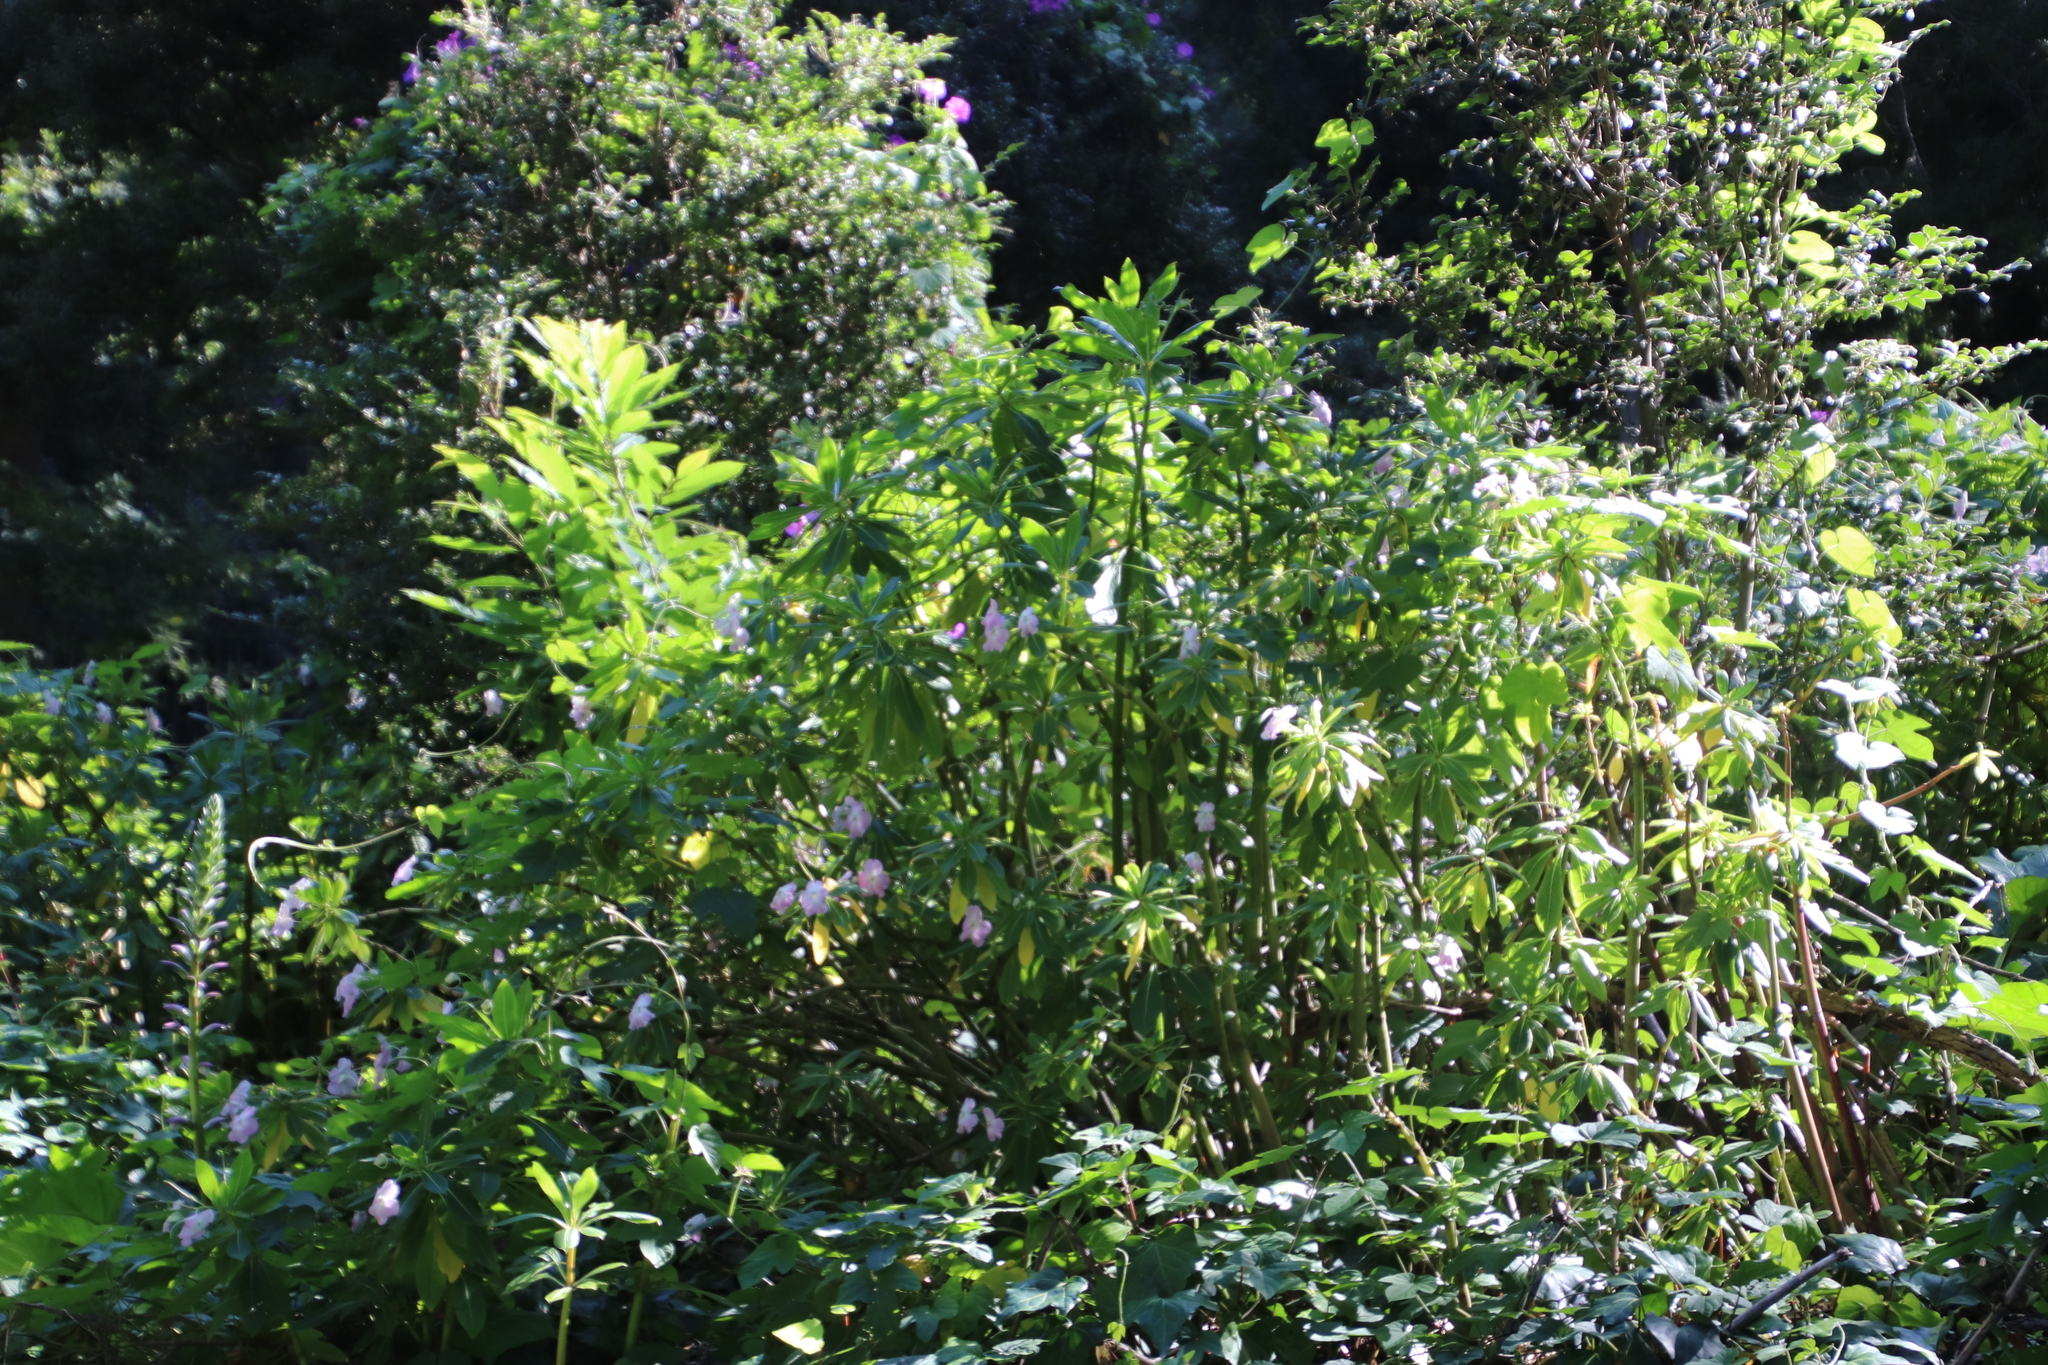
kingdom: Plantae
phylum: Tracheophyta
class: Magnoliopsida
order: Ericales
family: Balsaminaceae
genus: Impatiens
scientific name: Impatiens sodenii
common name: Oliver's touch-me-not
